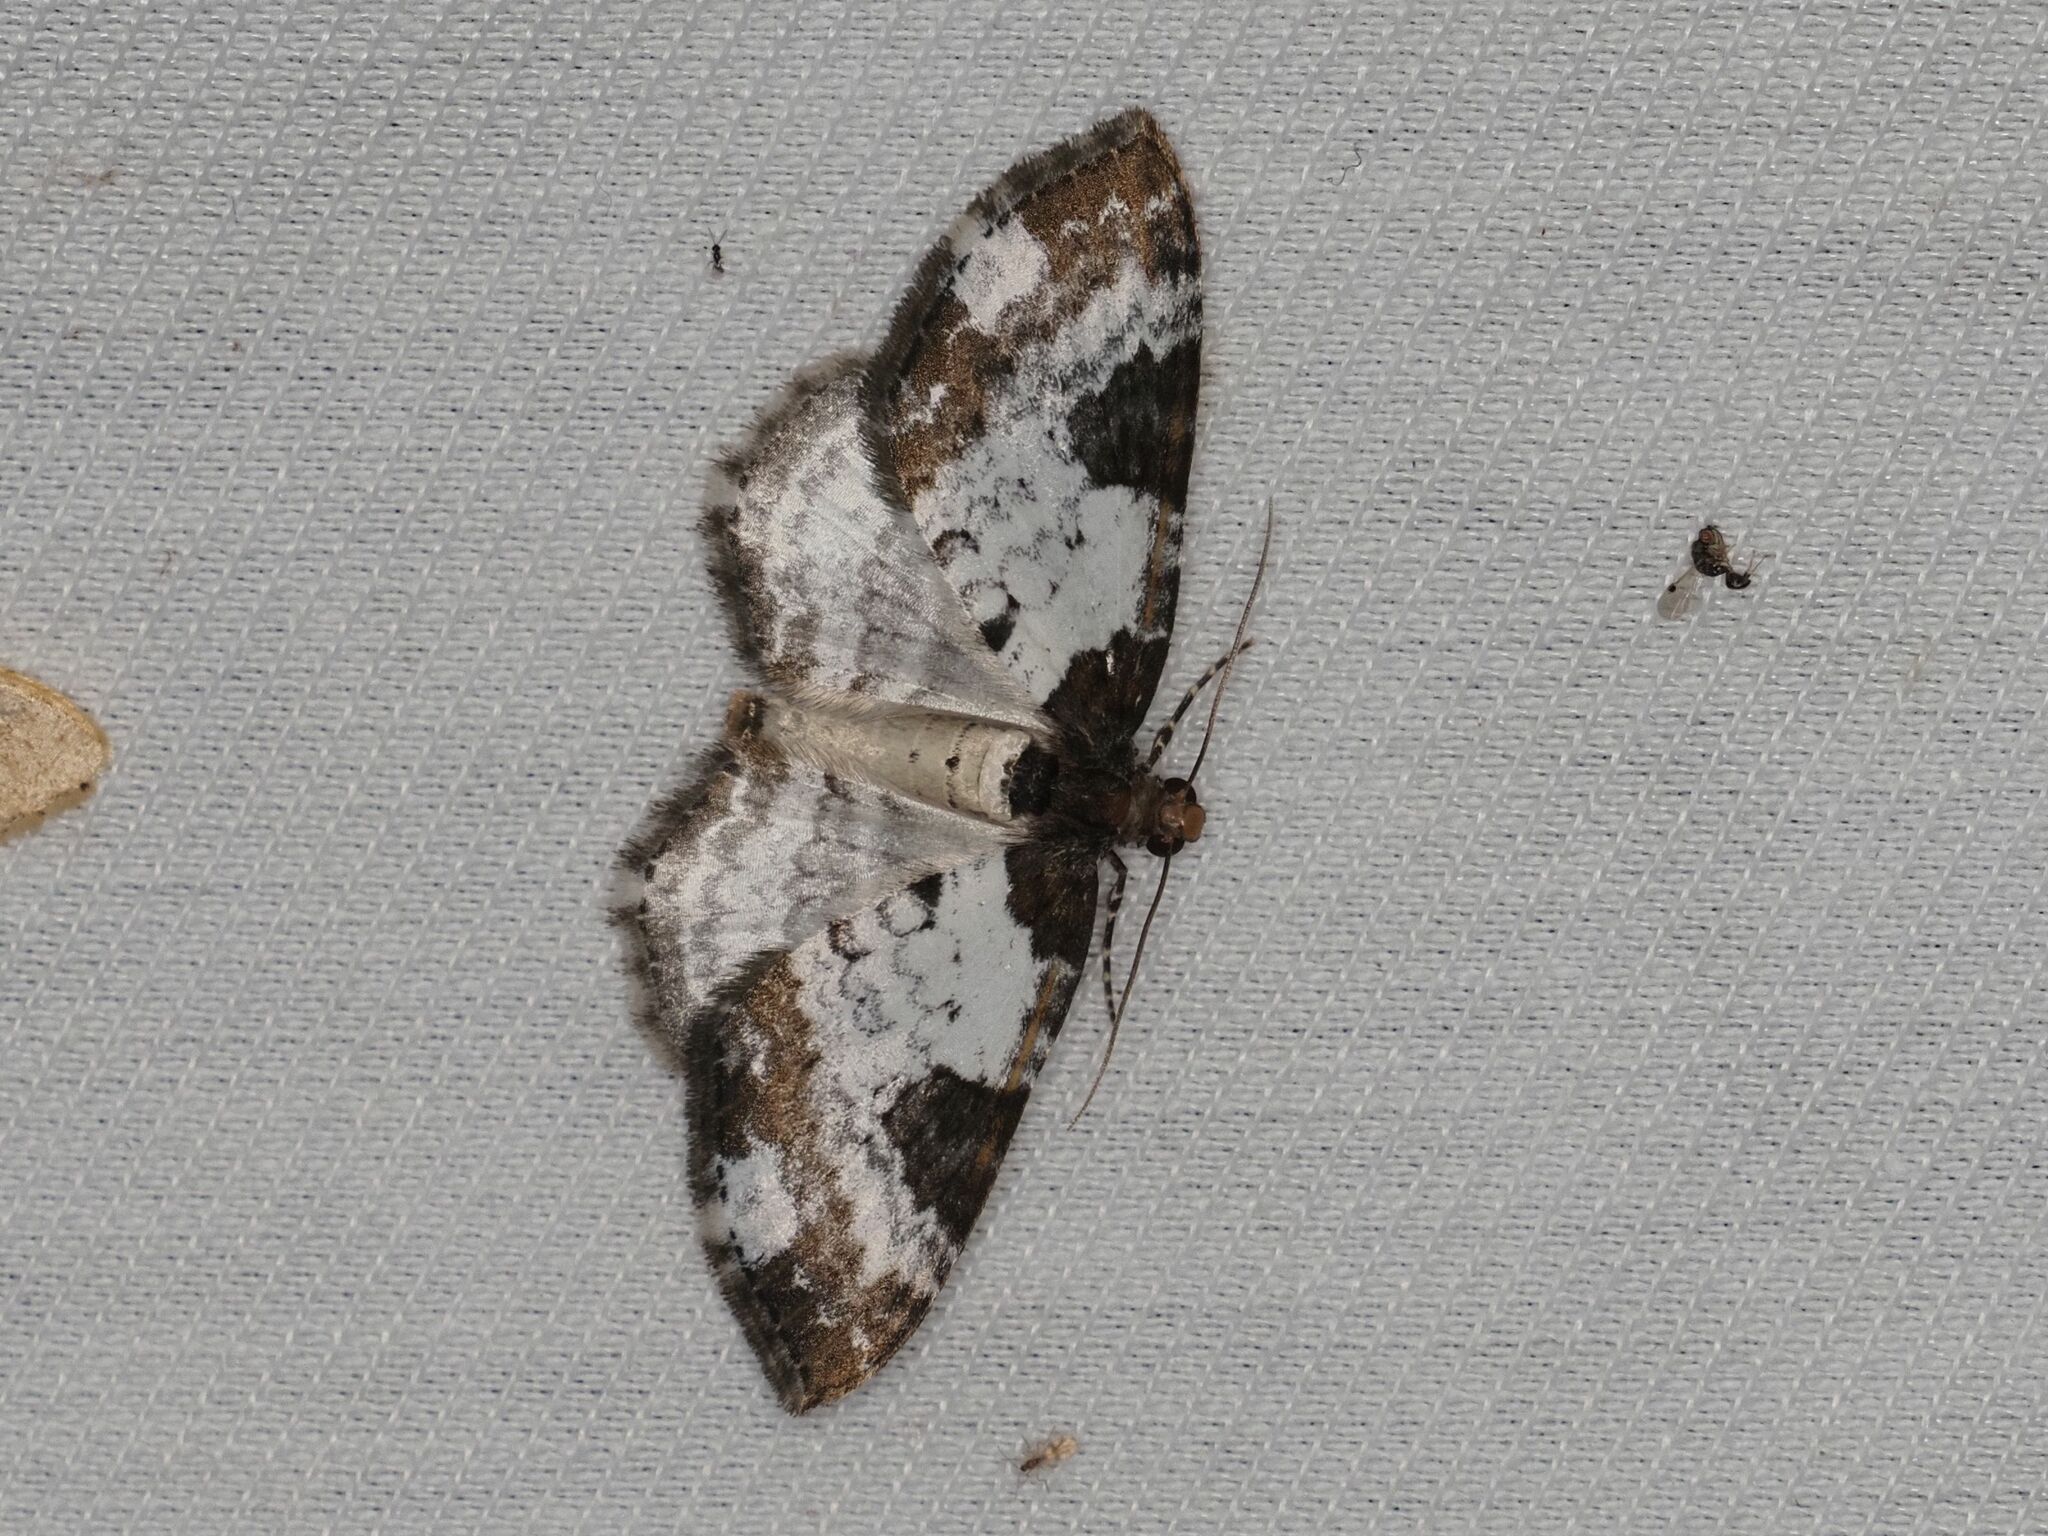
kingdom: Animalia
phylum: Arthropoda
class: Insecta
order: Lepidoptera
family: Geometridae
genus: Melanthia
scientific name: Melanthia procellata
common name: Pretty chalk carpet
